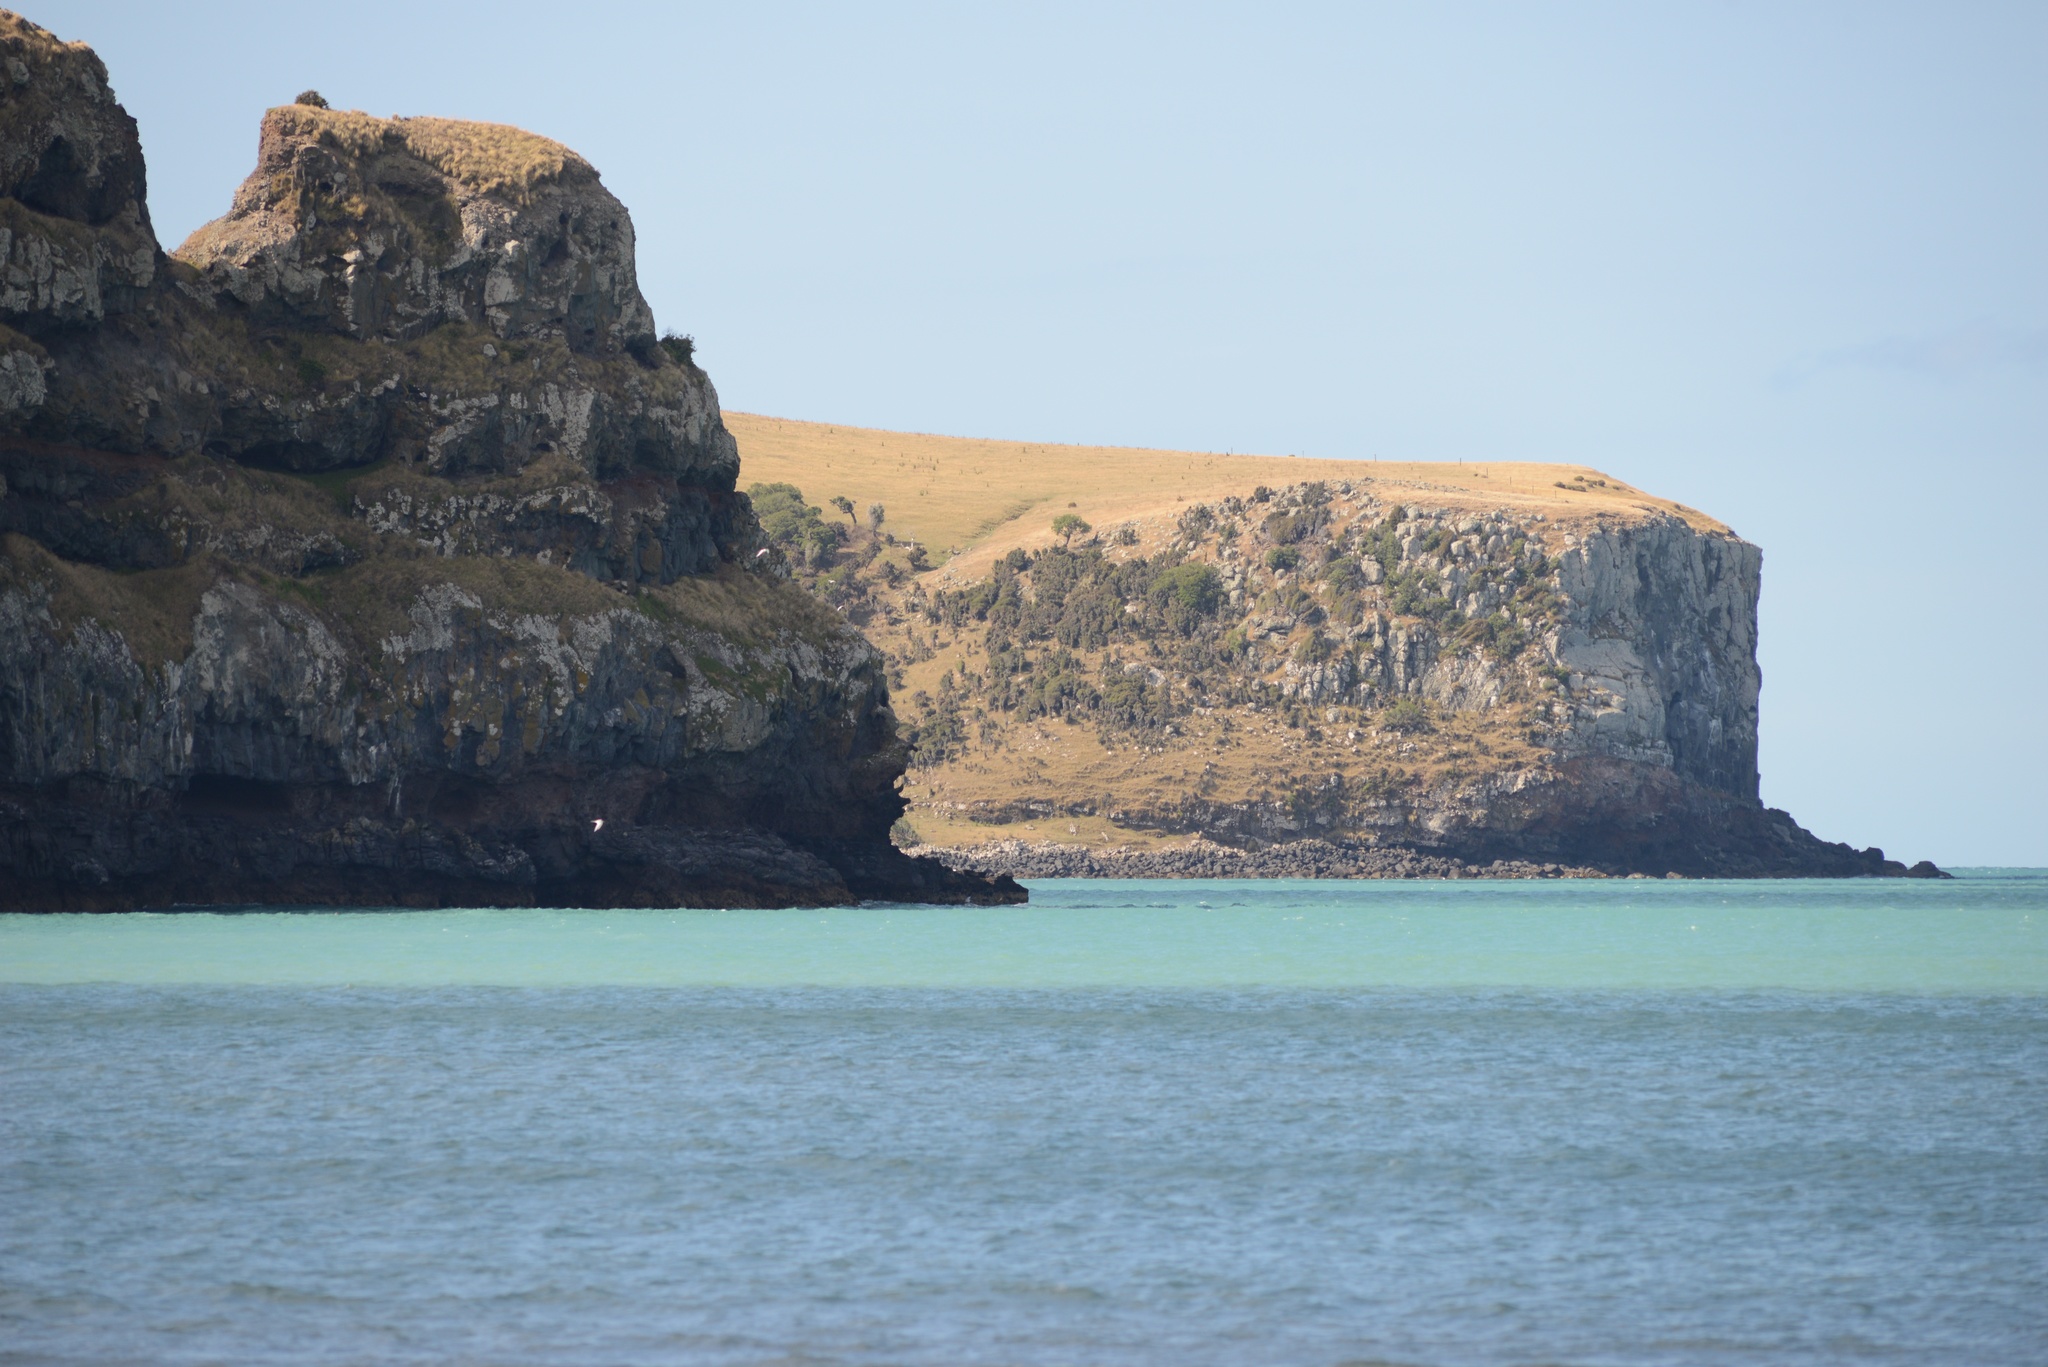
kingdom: Animalia
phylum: Chordata
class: Aves
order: Charadriiformes
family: Laridae
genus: Sterna
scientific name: Sterna striata
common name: White-fronted tern
